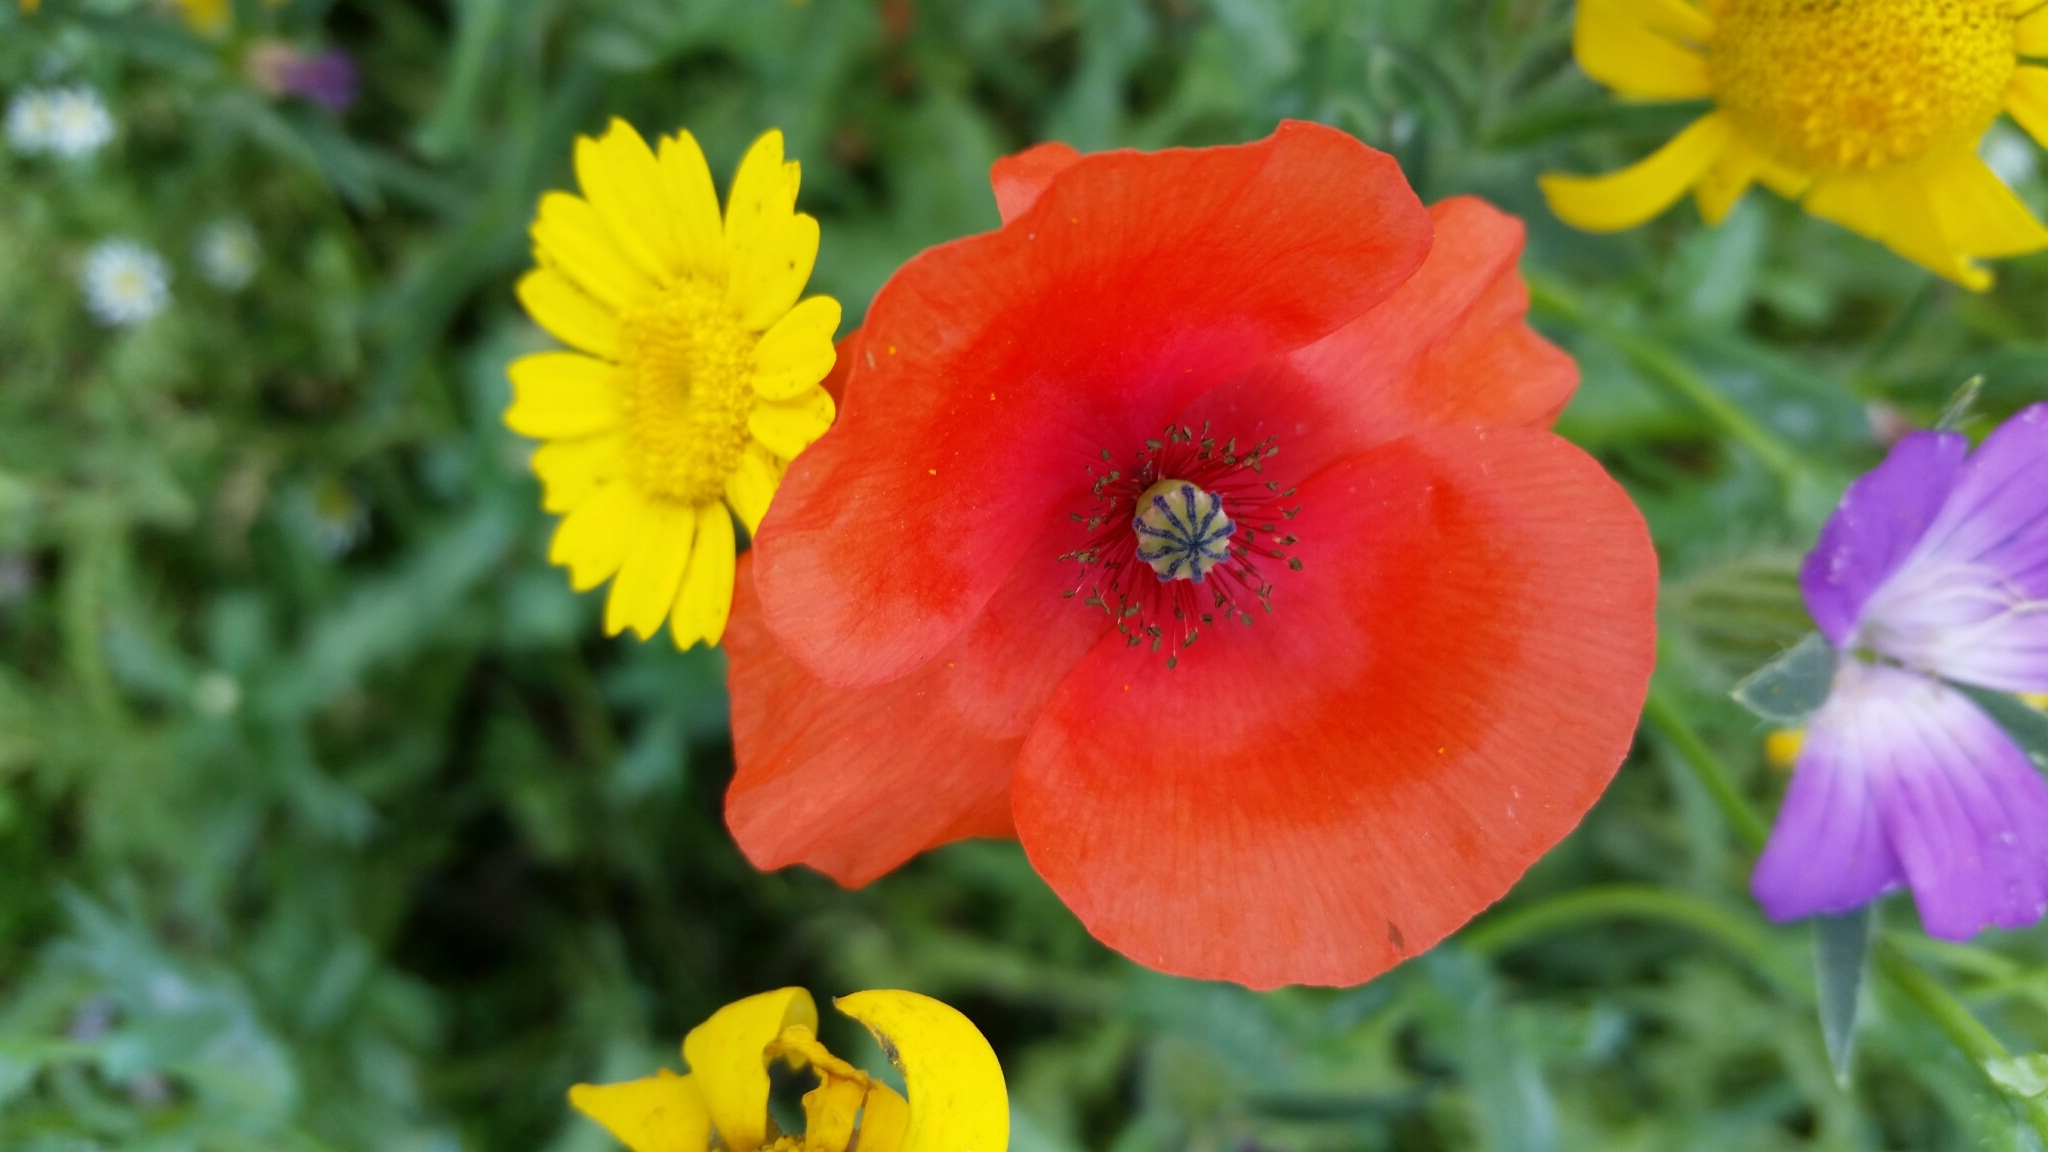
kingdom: Plantae
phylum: Tracheophyta
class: Magnoliopsida
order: Ranunculales
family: Papaveraceae
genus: Papaver
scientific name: Papaver rhoeas
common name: Corn poppy
